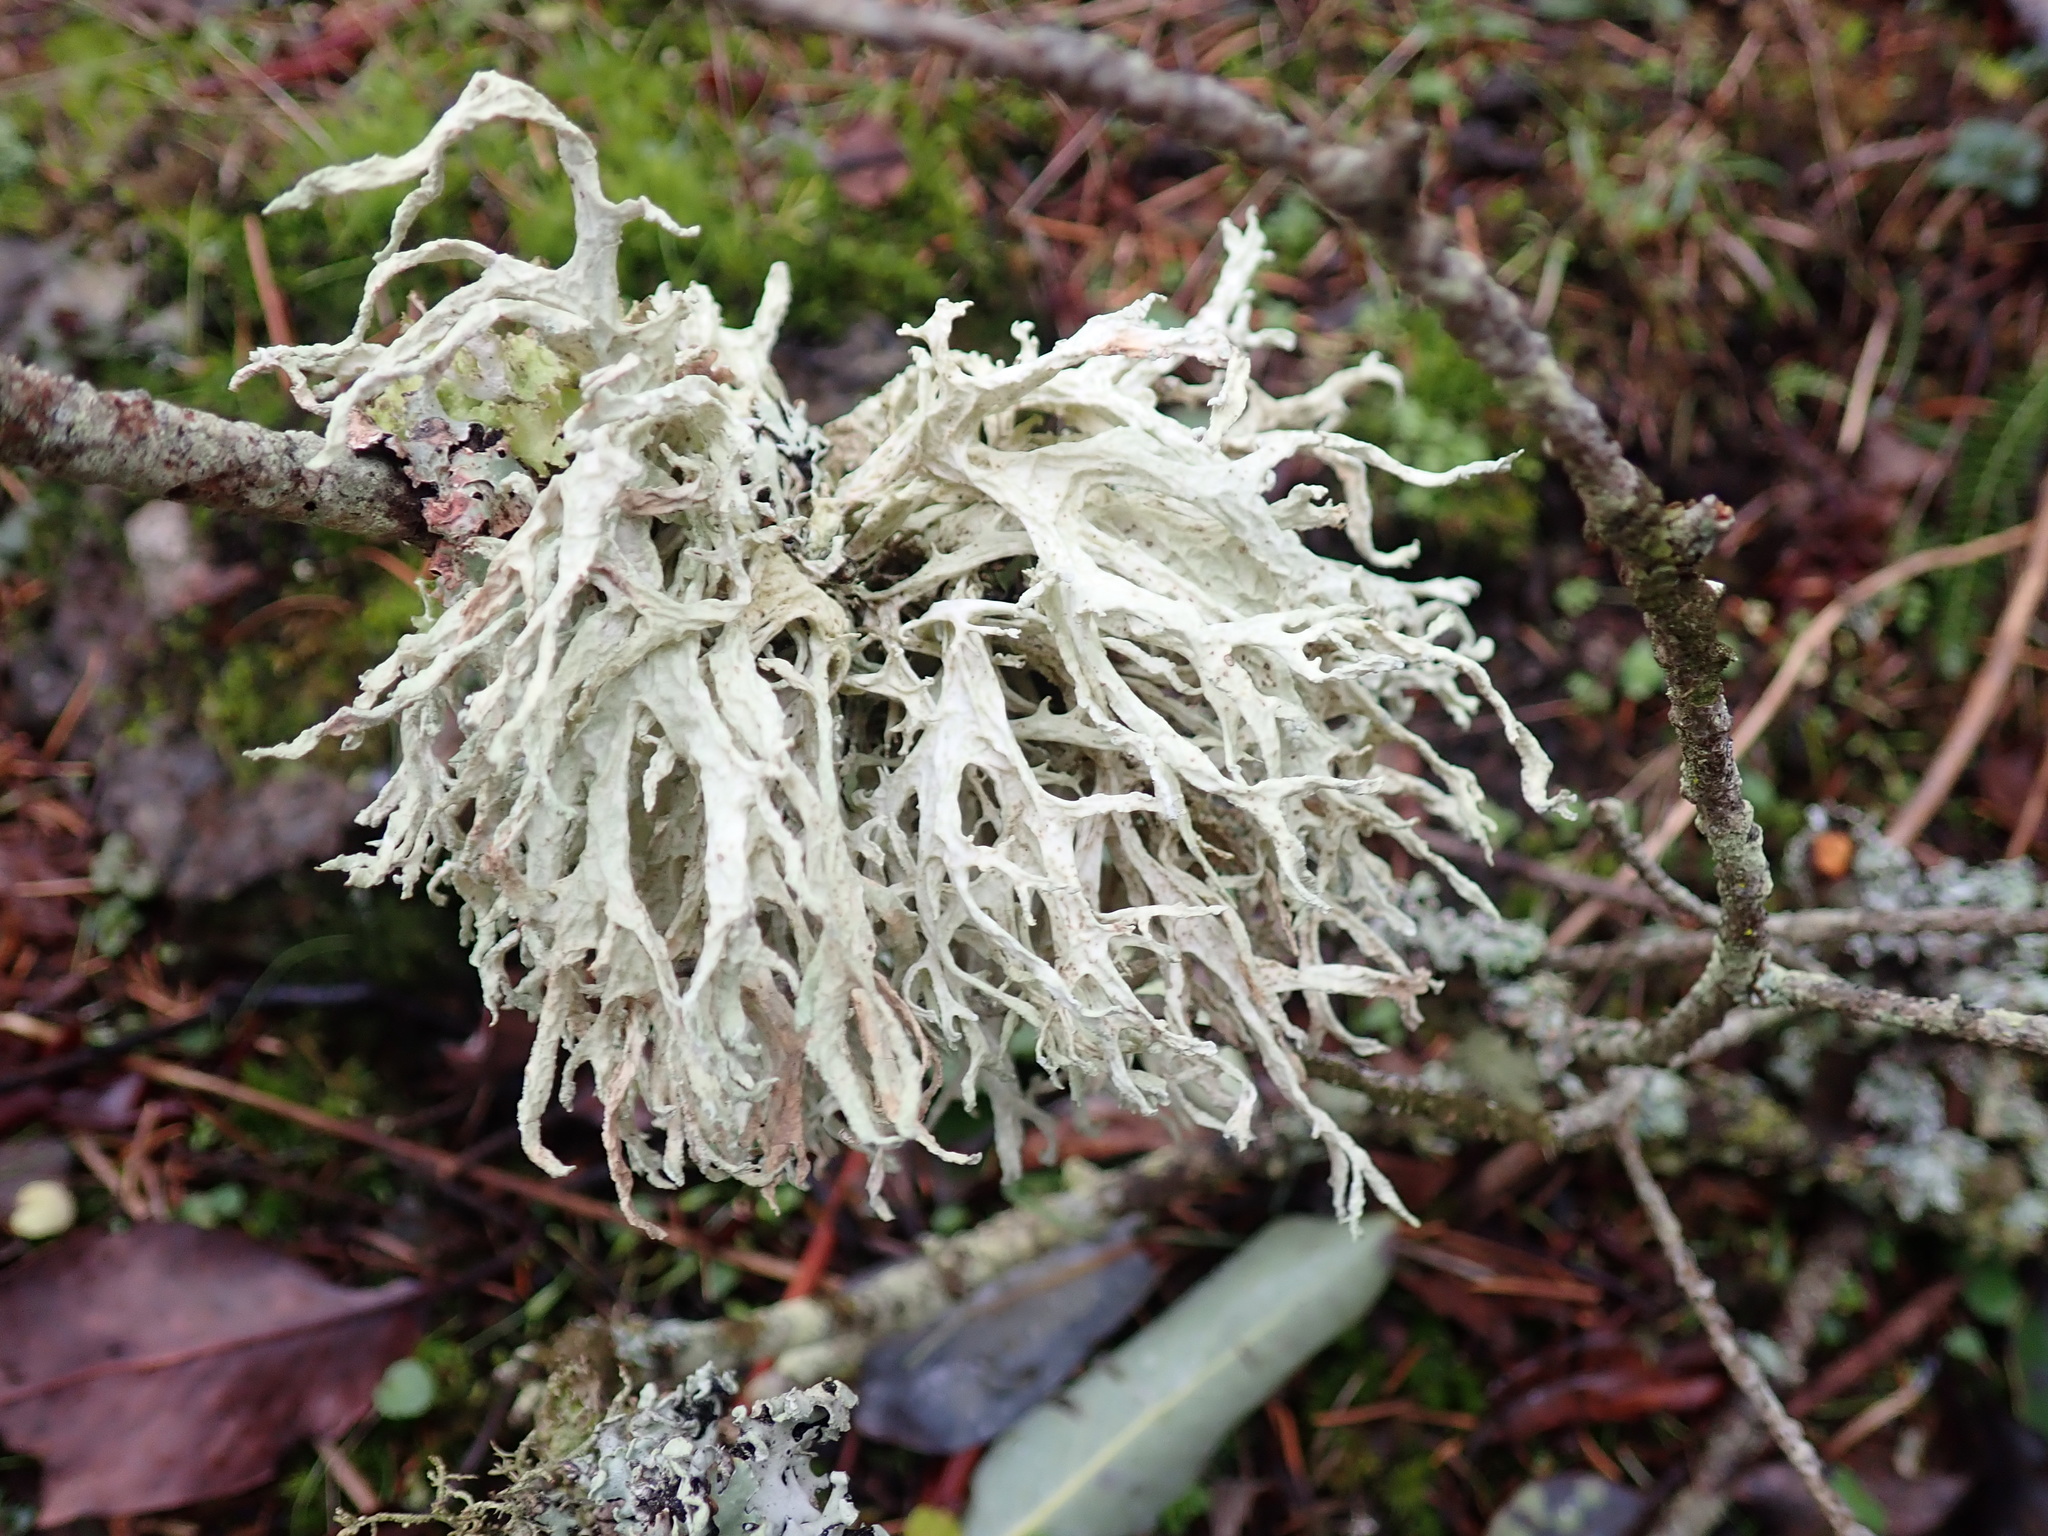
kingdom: Fungi
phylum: Ascomycota
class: Lecanoromycetes
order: Lecanorales
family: Parmeliaceae
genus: Evernia
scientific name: Evernia prunastri
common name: Oak moss
